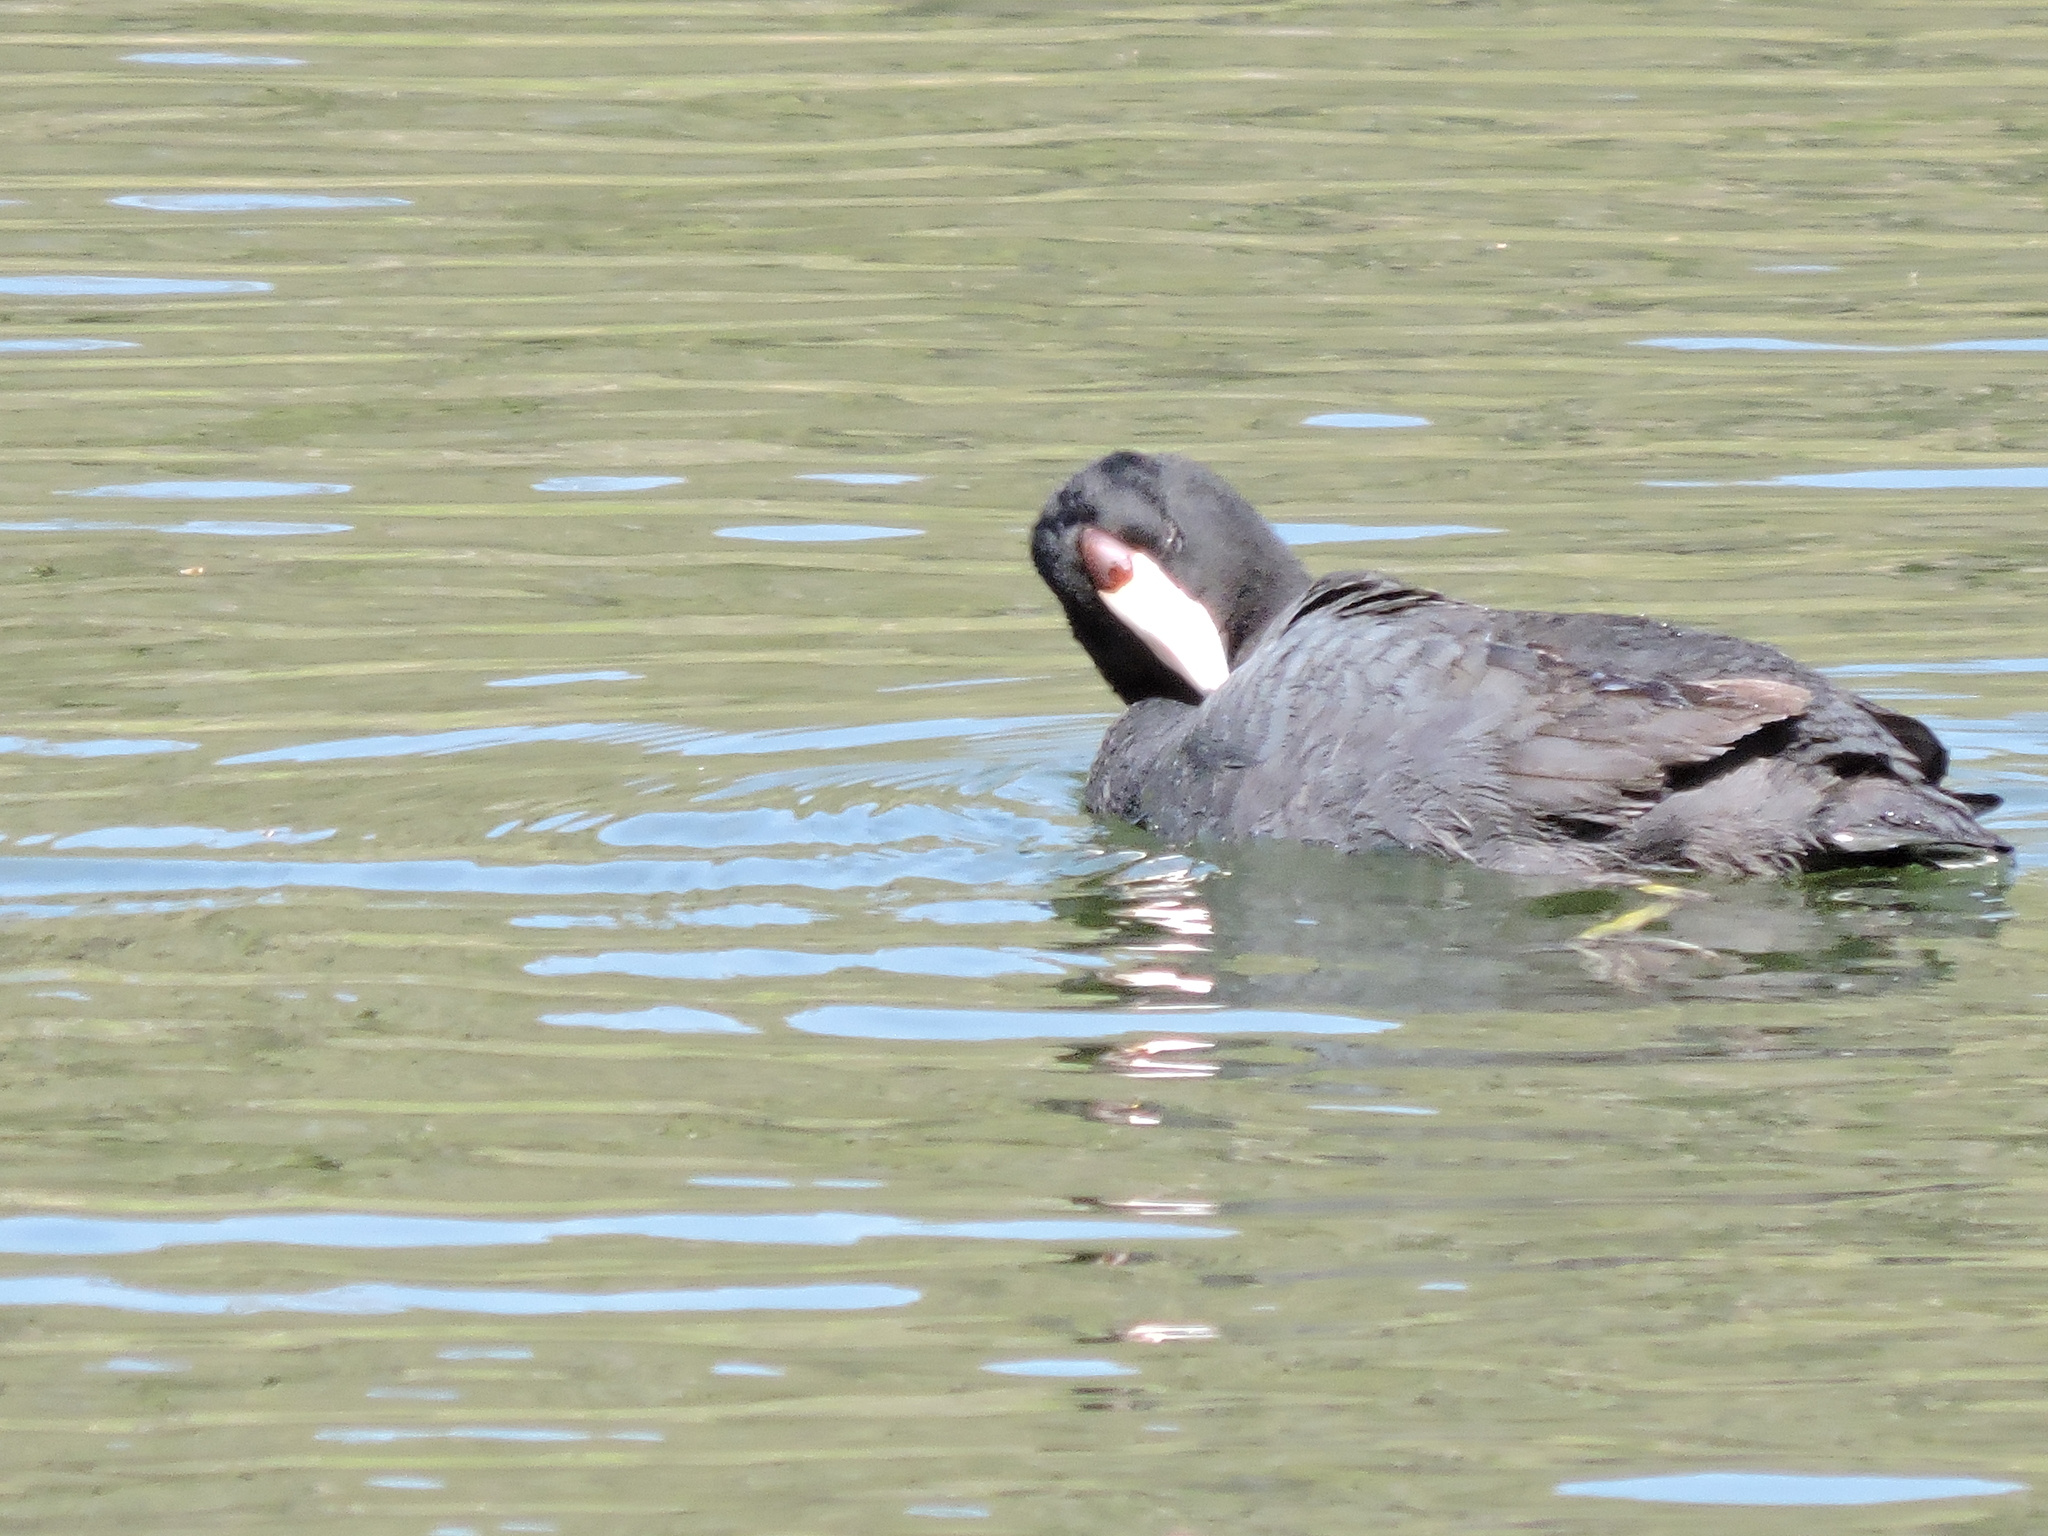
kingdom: Animalia
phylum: Chordata
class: Aves
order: Gruiformes
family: Rallidae
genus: Fulica
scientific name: Fulica americana
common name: American coot
